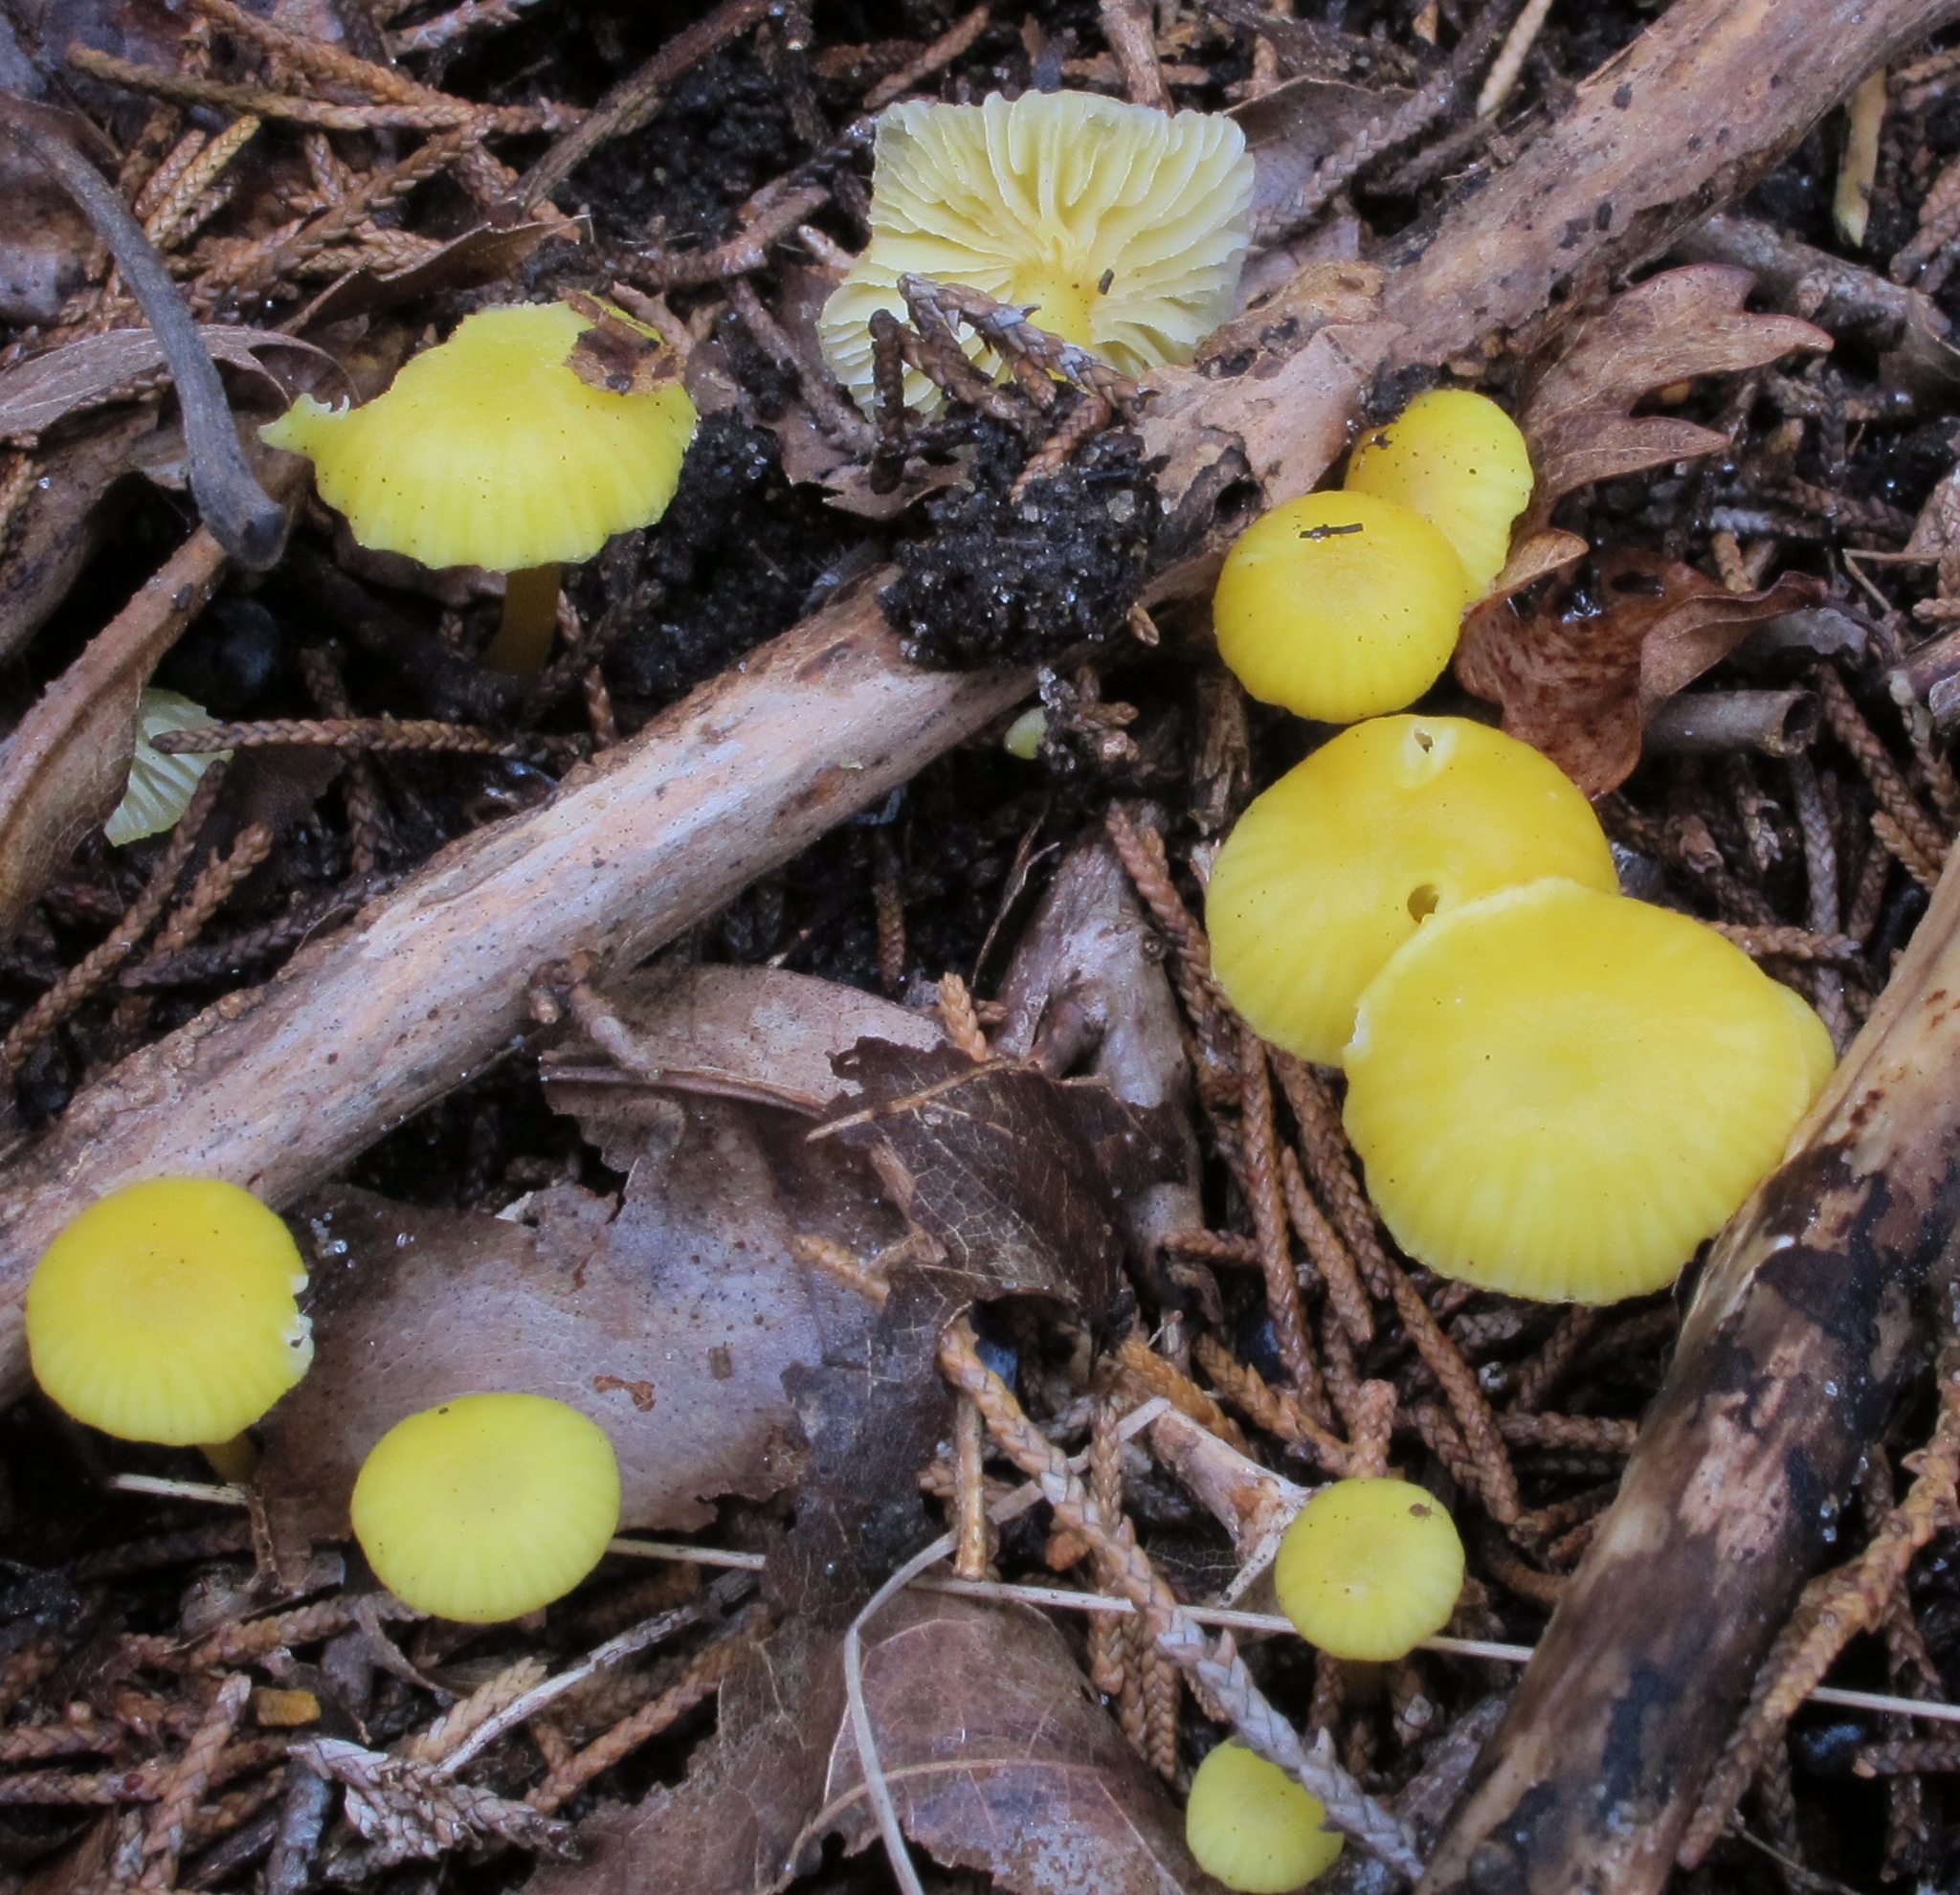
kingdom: Fungi
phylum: Basidiomycota
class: Agaricomycetes
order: Agaricales
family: Hygrophoraceae
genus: Hygrocybe
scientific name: Hygrocybe chlorophana
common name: Golden waxcap
